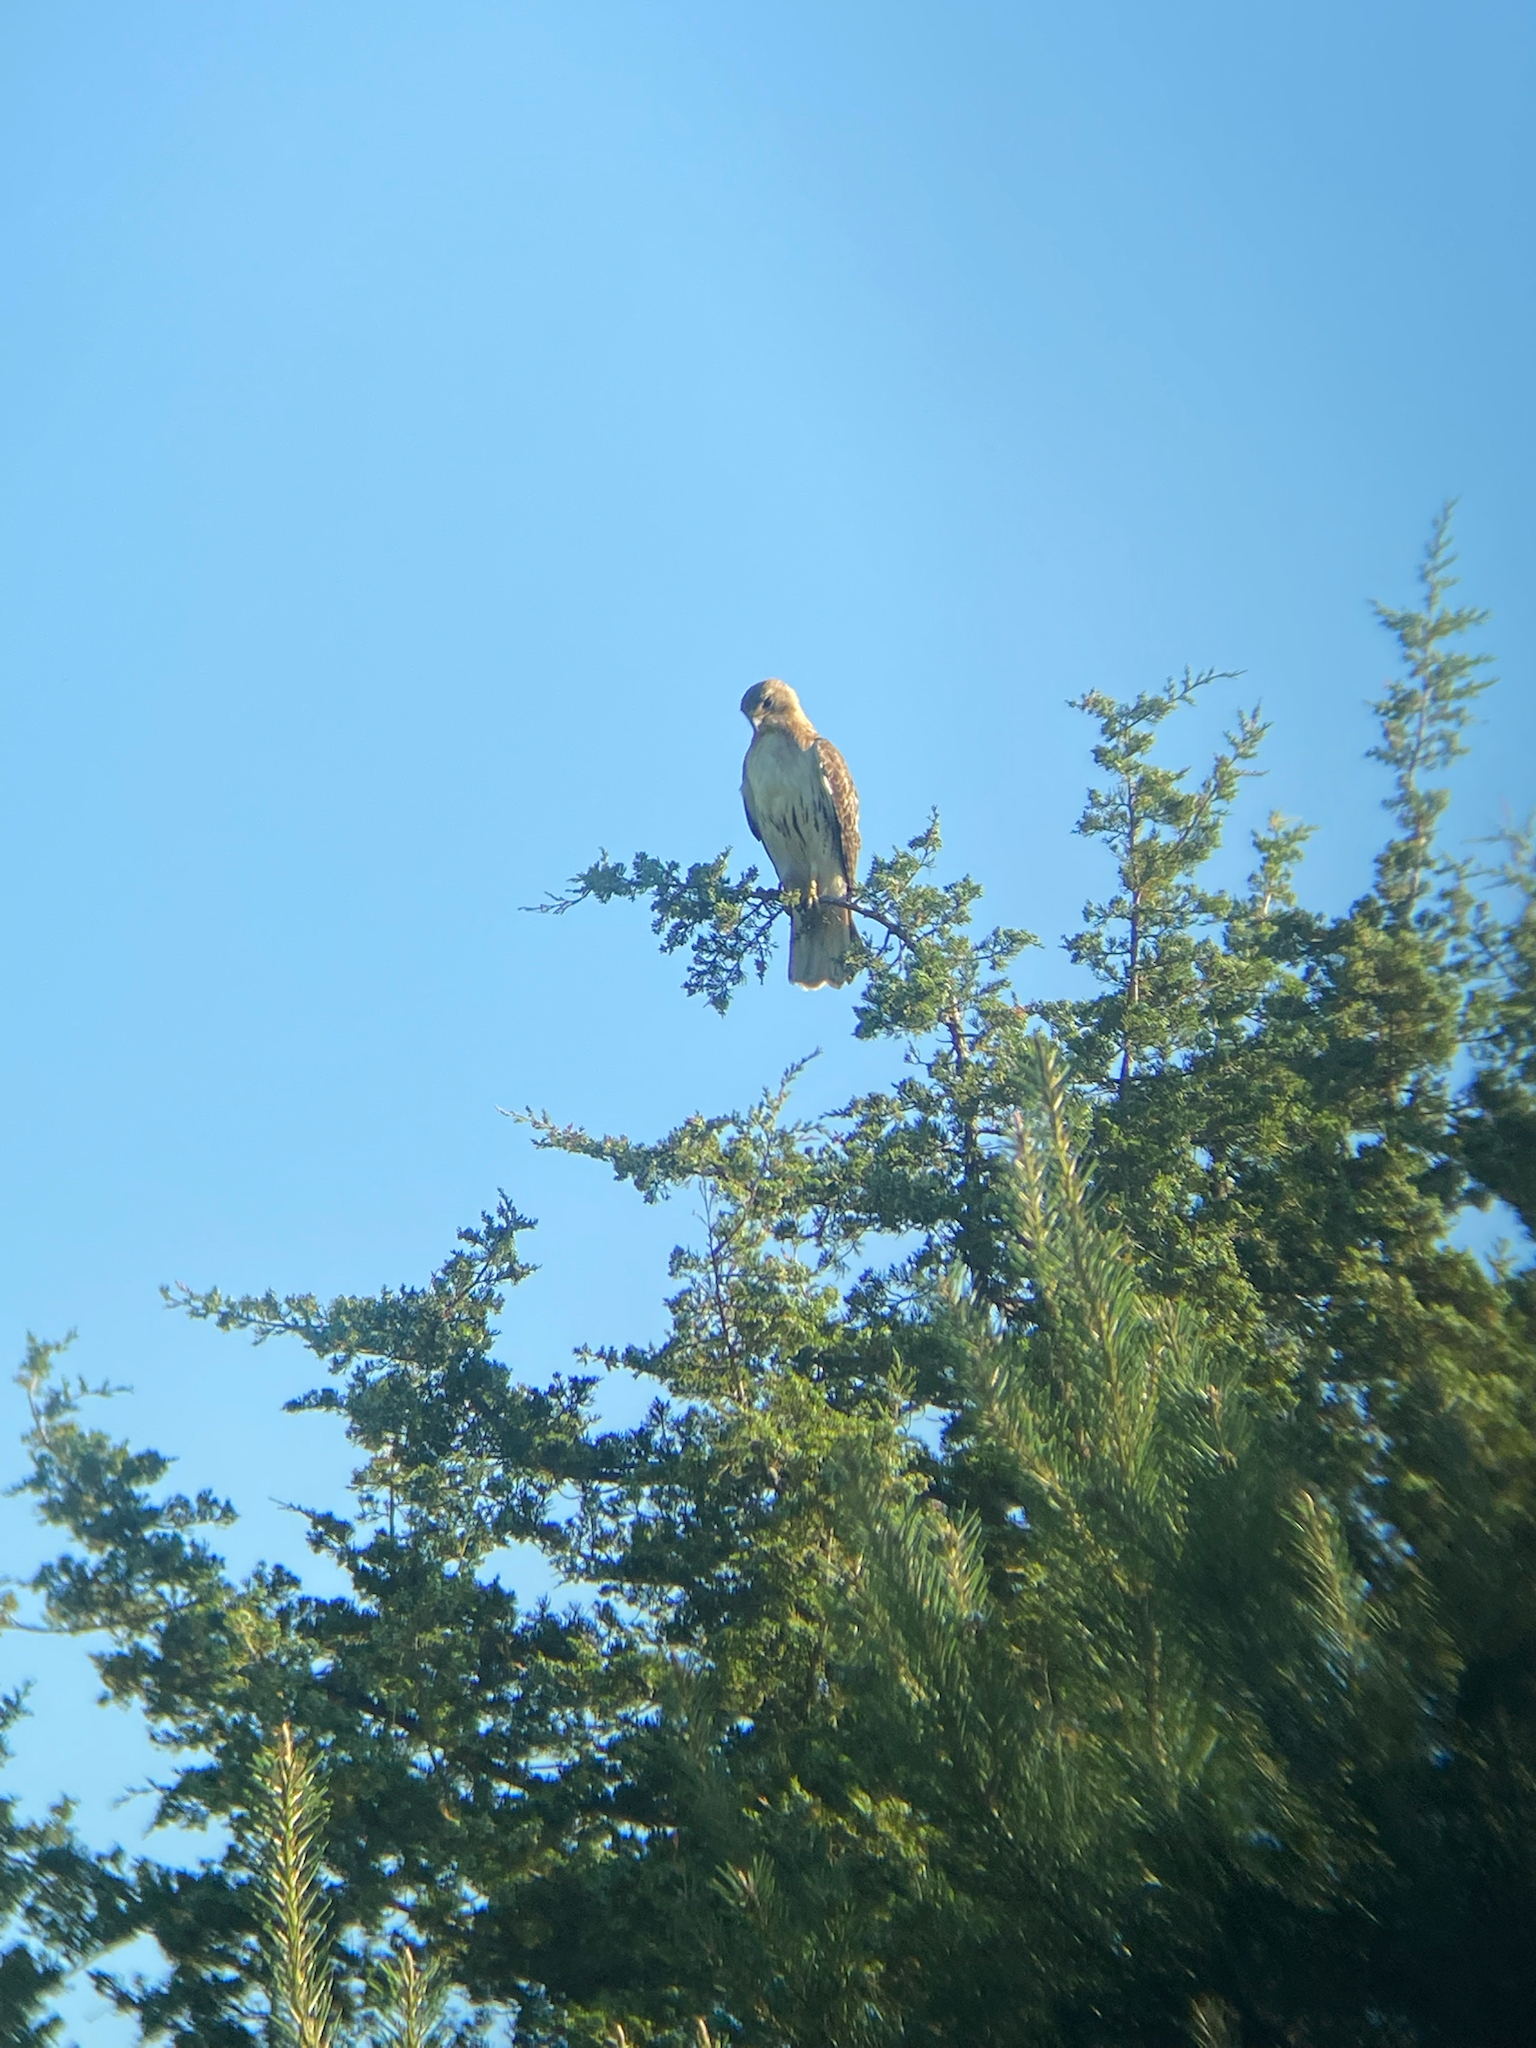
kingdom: Animalia
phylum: Chordata
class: Aves
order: Accipitriformes
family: Accipitridae
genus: Buteo
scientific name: Buteo jamaicensis
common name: Red-tailed hawk
